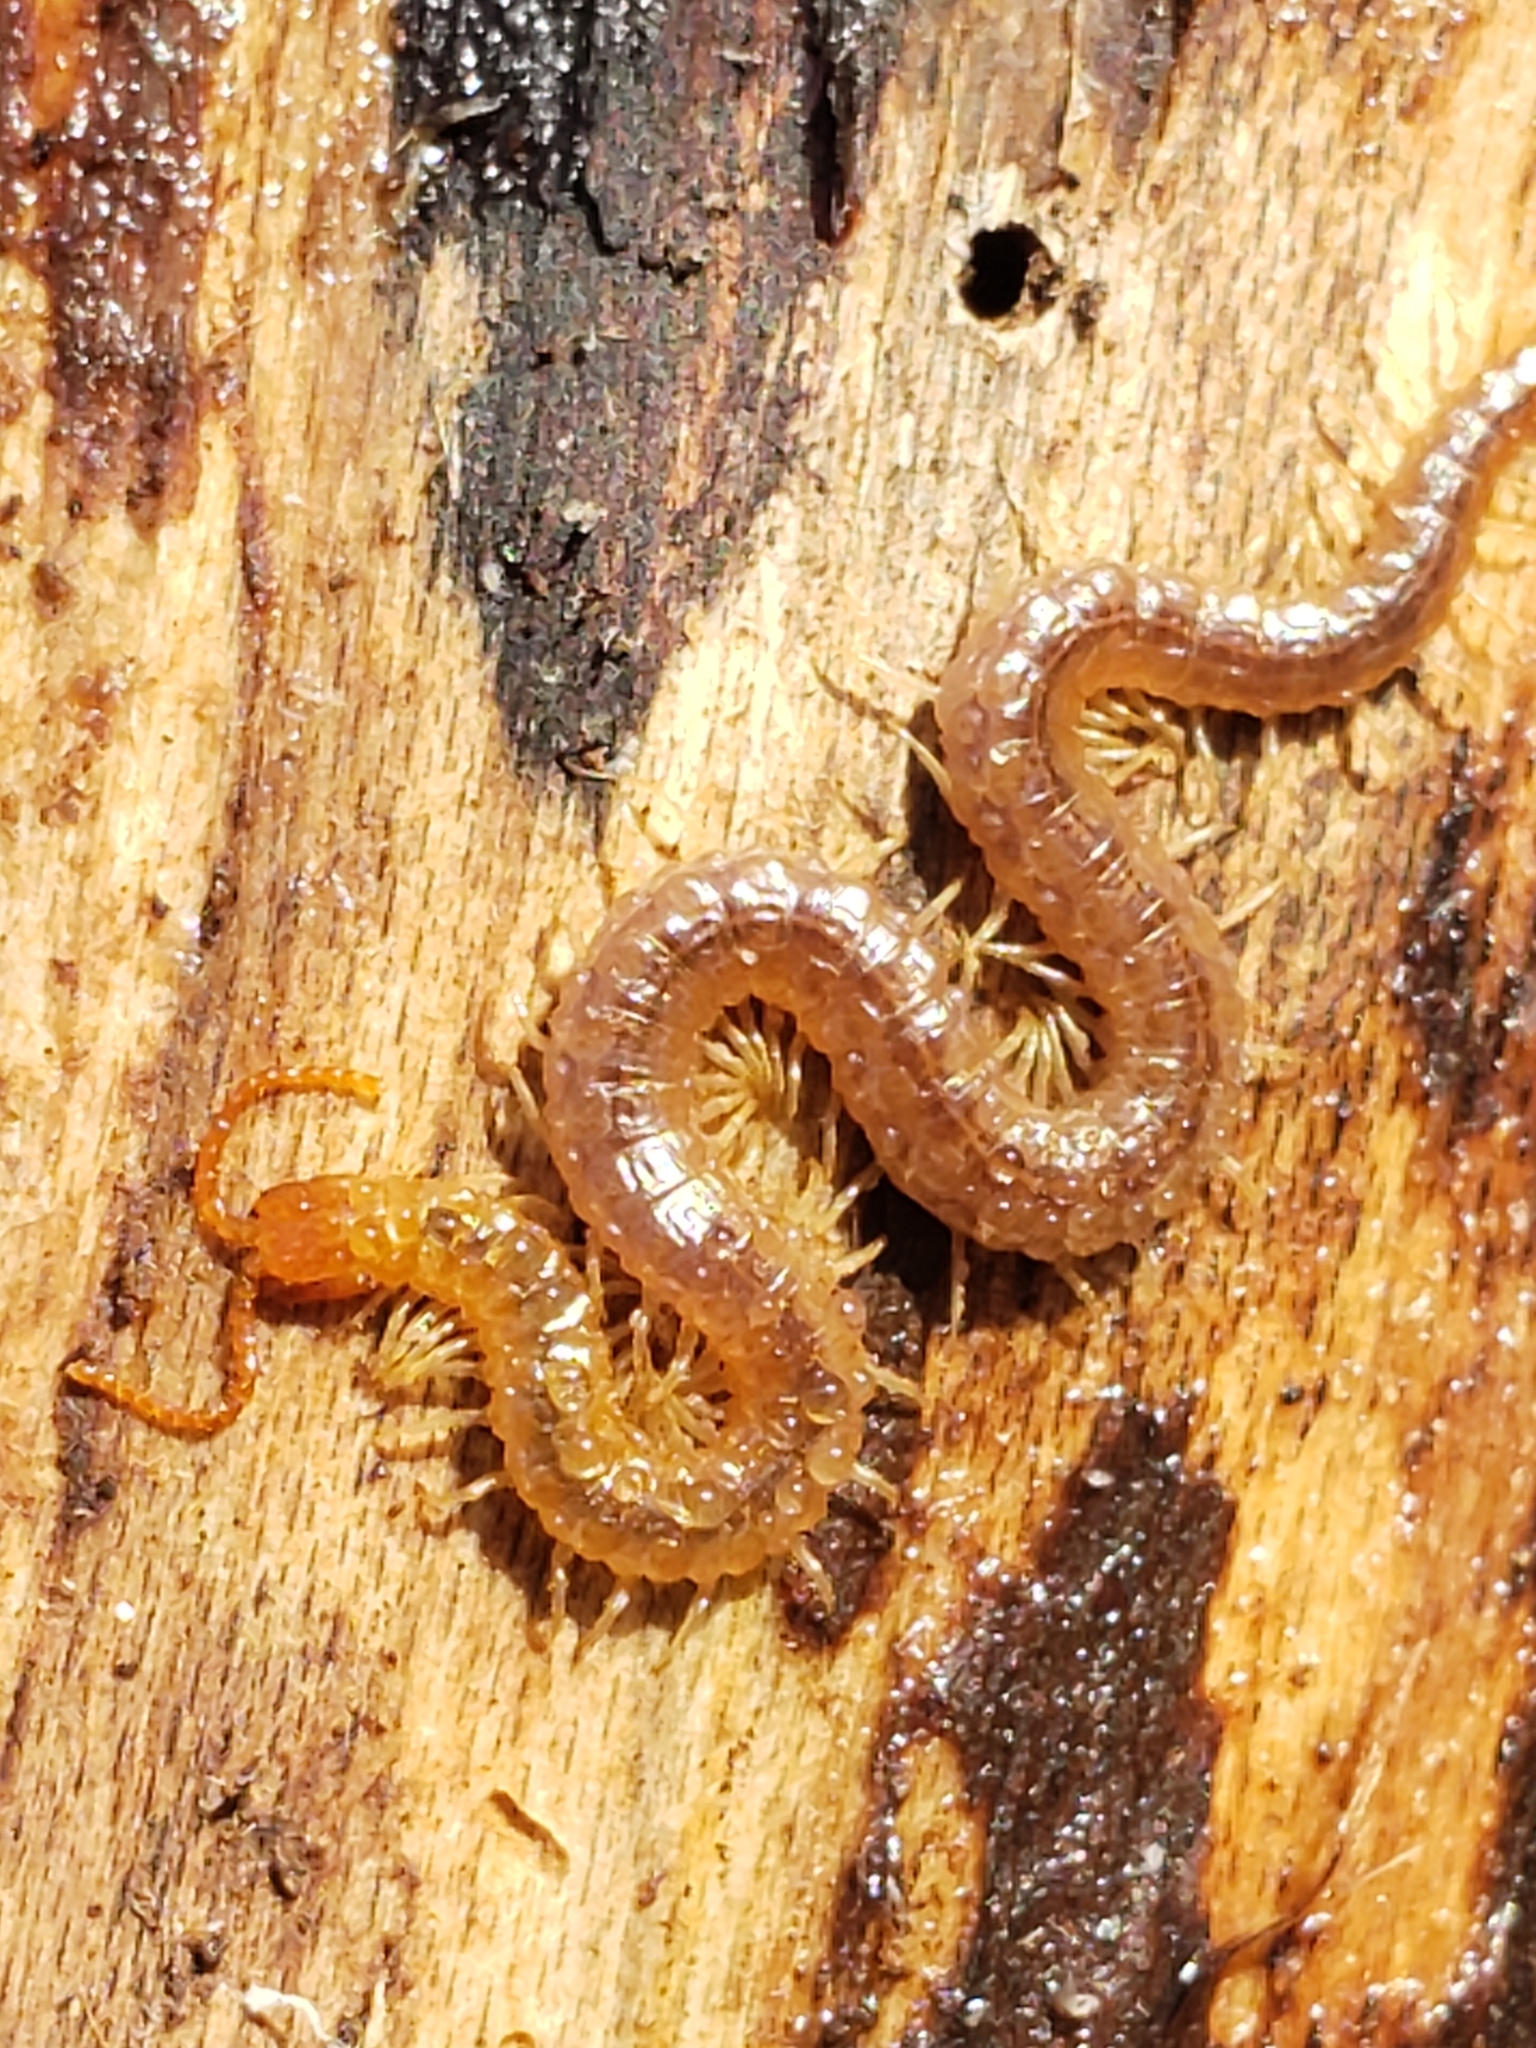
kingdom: Animalia
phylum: Arthropoda
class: Chilopoda
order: Geophilomorpha
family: Geophilidae
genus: Geophilus
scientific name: Geophilus vittatus
